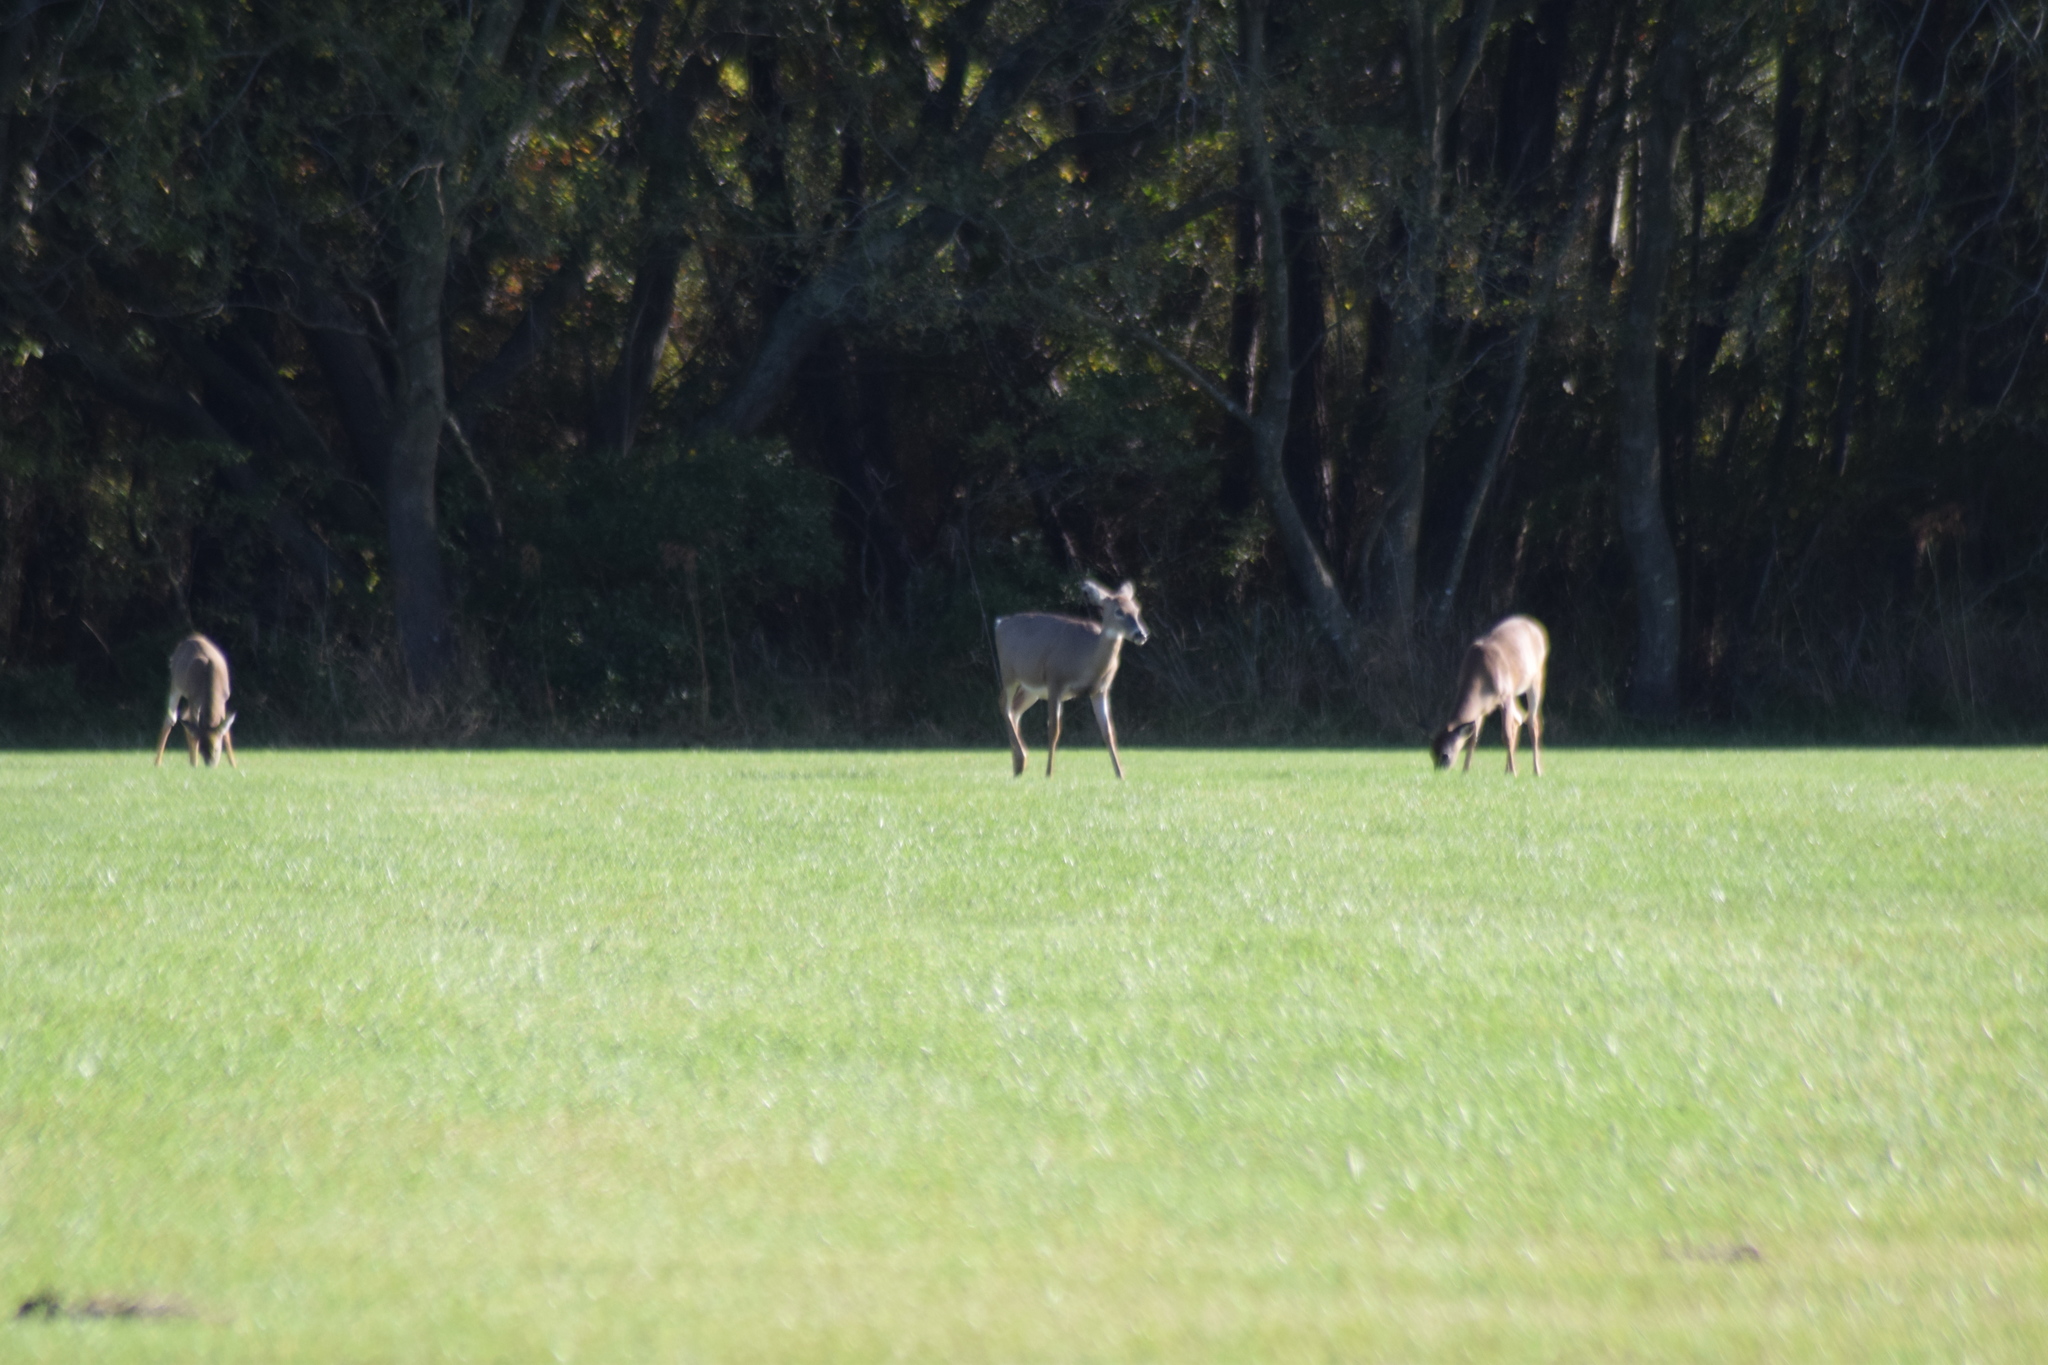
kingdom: Animalia
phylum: Chordata
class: Mammalia
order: Artiodactyla
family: Cervidae
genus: Odocoileus
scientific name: Odocoileus virginianus
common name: White-tailed deer
